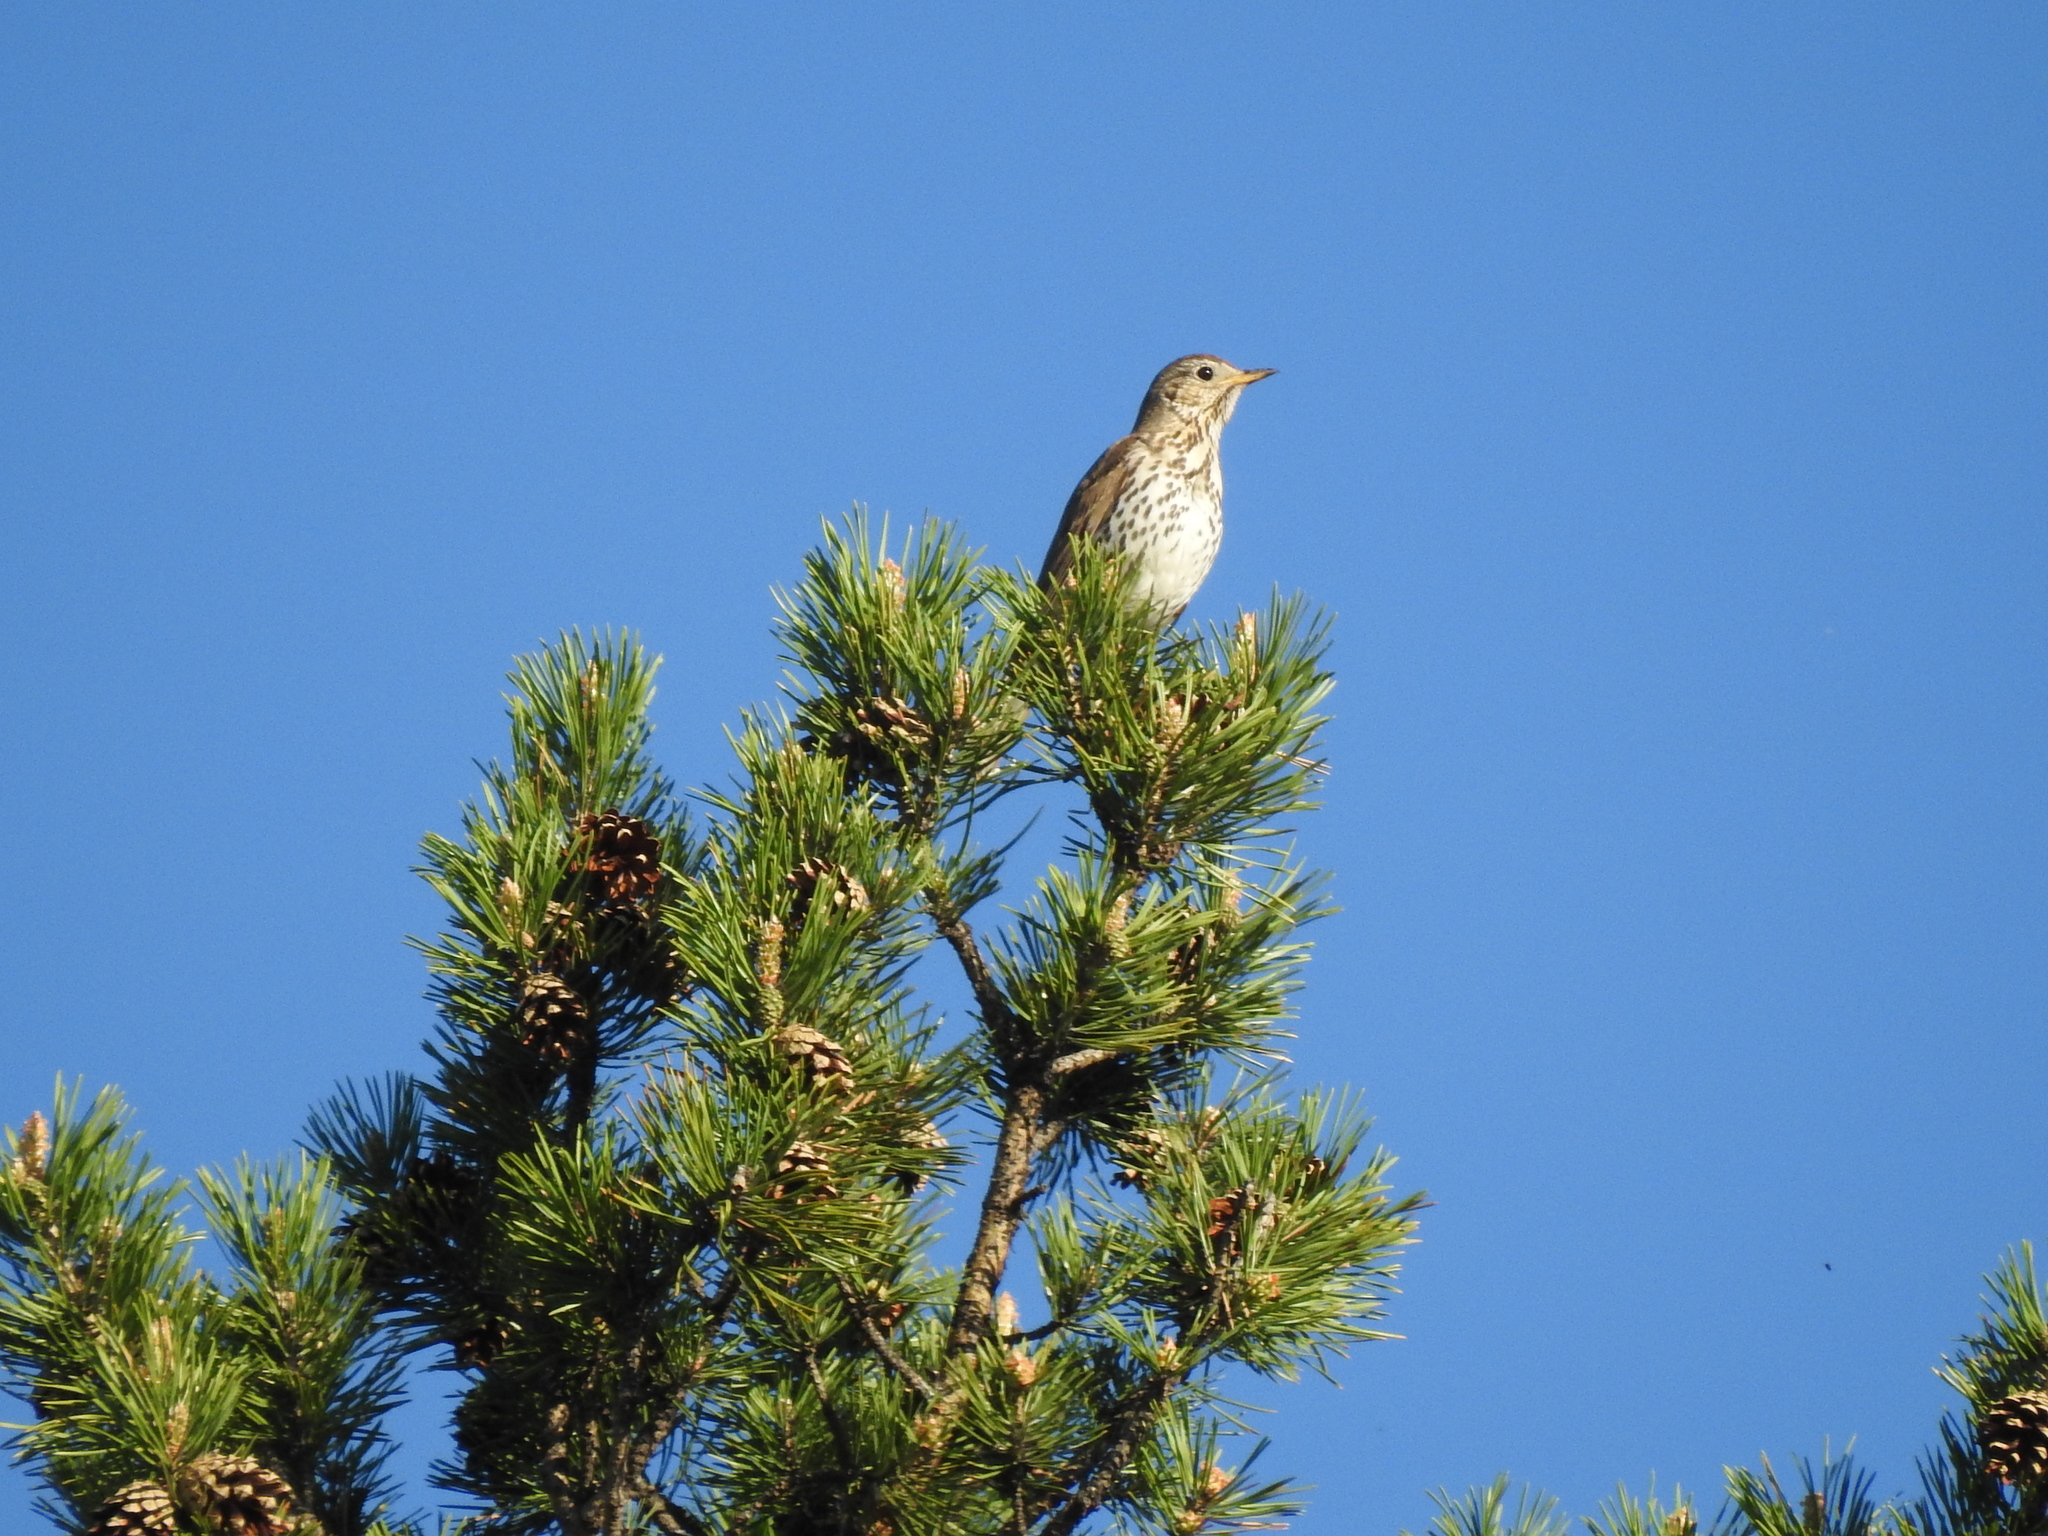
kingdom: Animalia
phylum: Chordata
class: Aves
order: Passeriformes
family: Turdidae
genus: Turdus
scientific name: Turdus philomelos
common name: Song thrush
